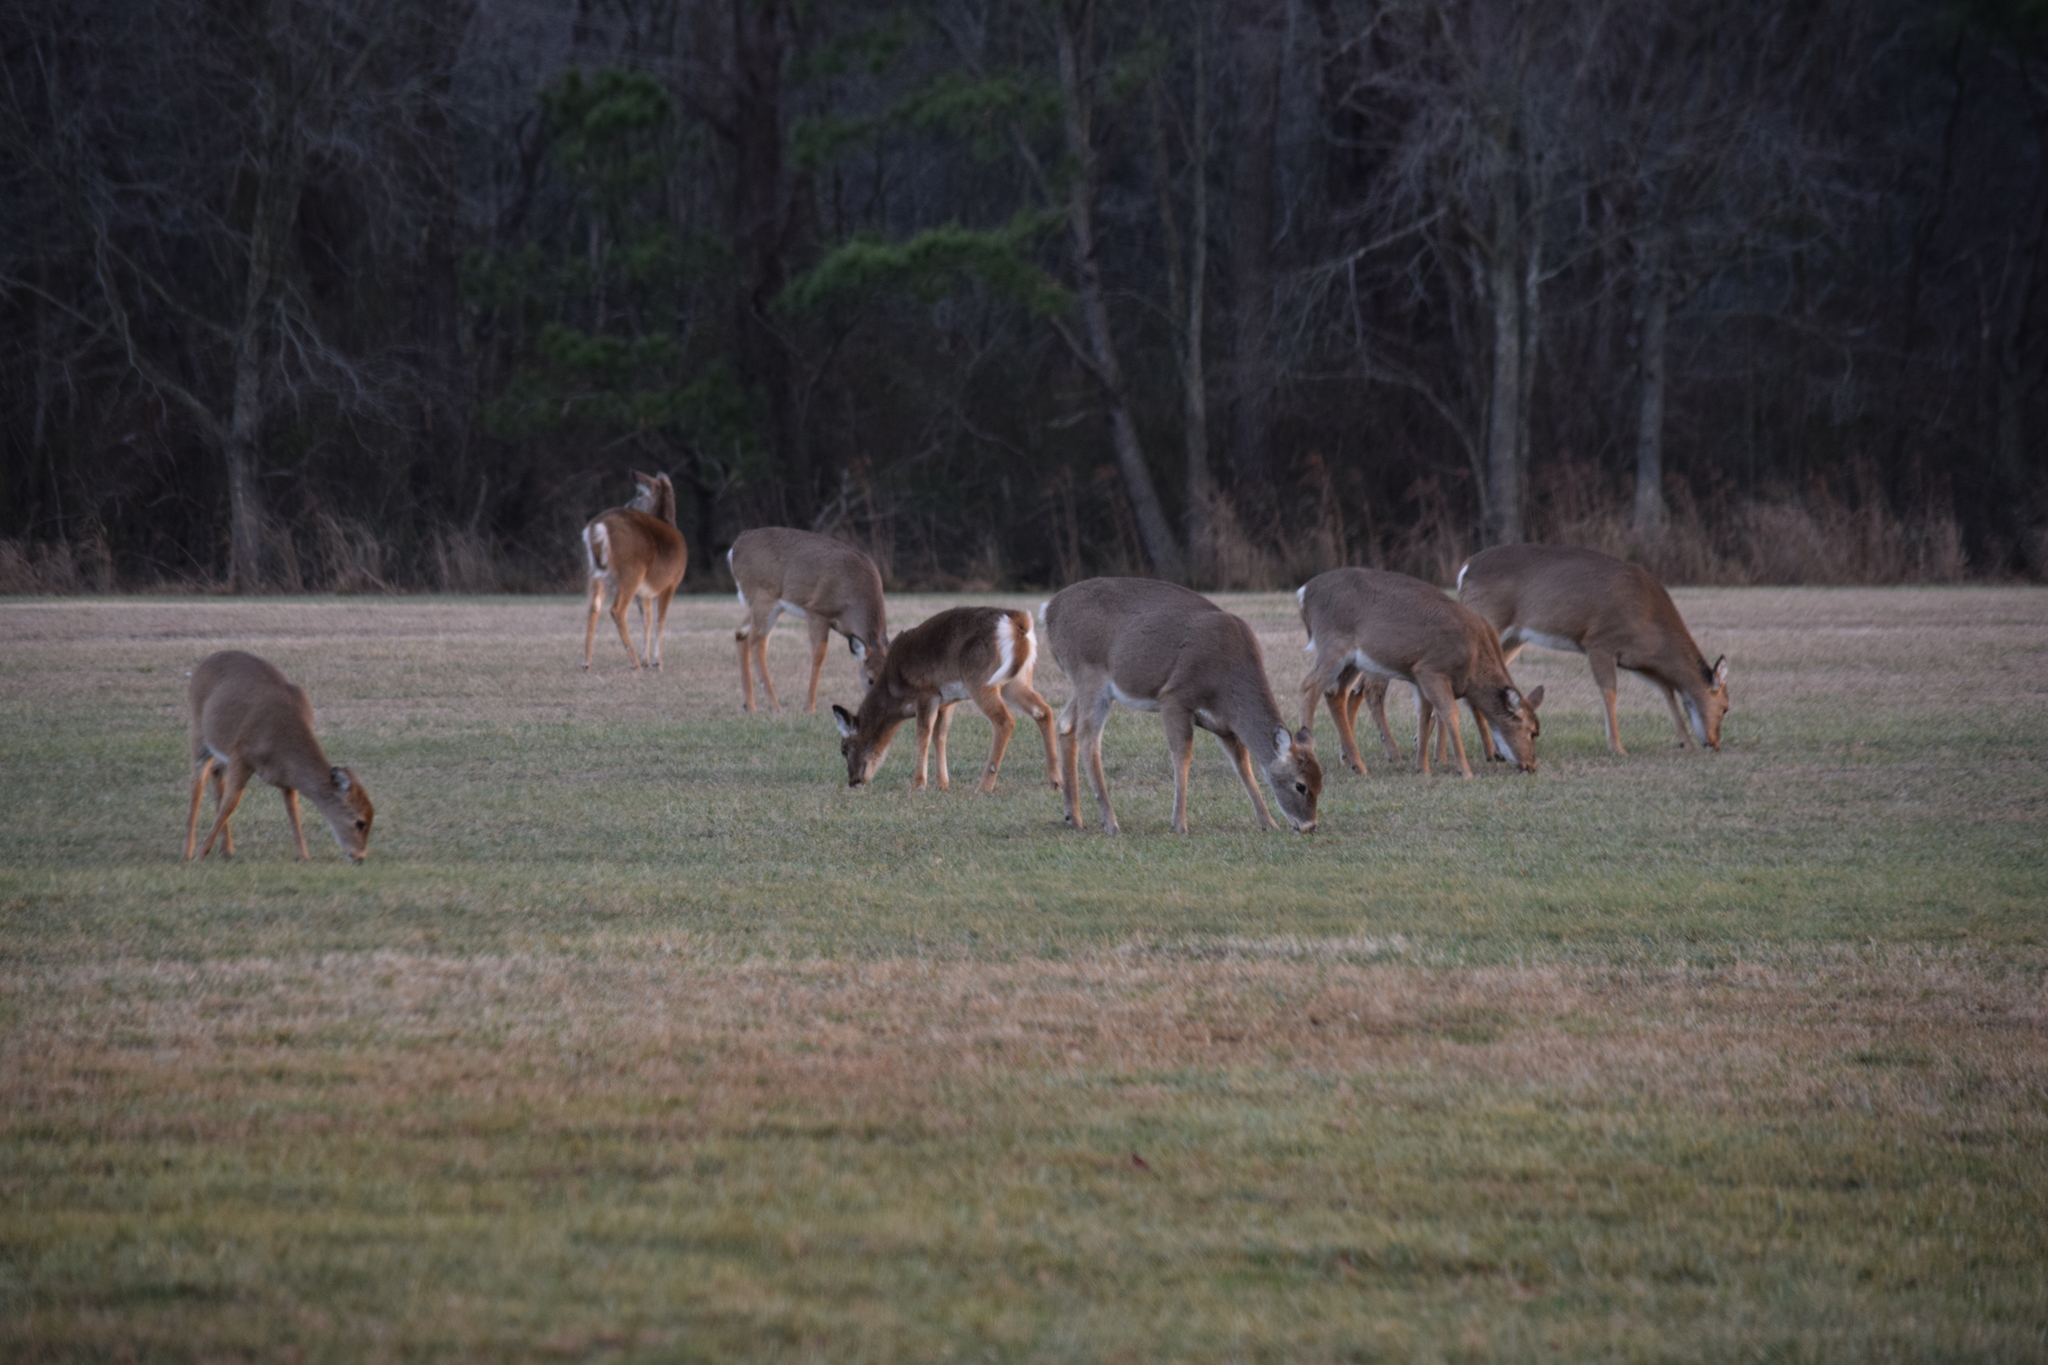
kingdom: Animalia
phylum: Chordata
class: Mammalia
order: Artiodactyla
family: Cervidae
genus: Odocoileus
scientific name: Odocoileus virginianus
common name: White-tailed deer
